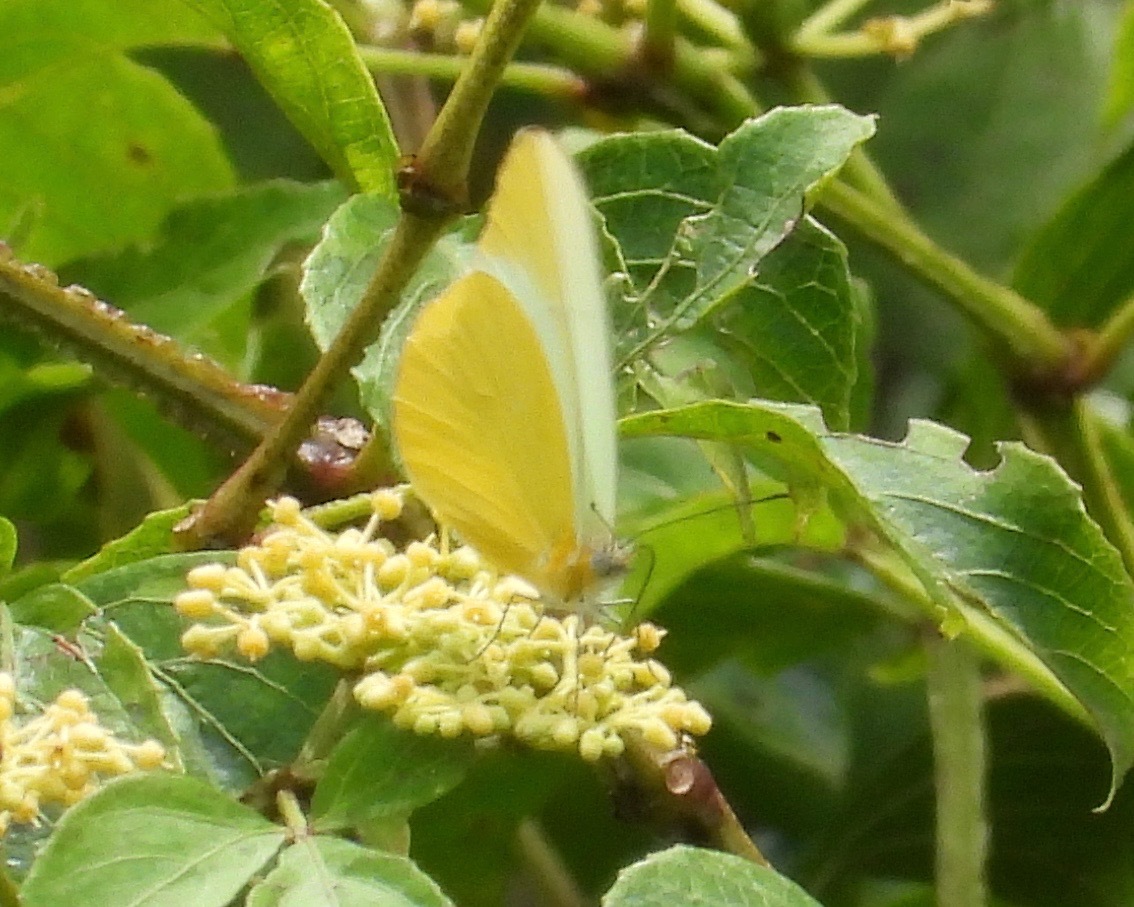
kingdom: Animalia
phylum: Arthropoda
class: Insecta
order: Lepidoptera
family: Pieridae
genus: Melete
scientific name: Melete lycimnia
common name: Common melwhite
